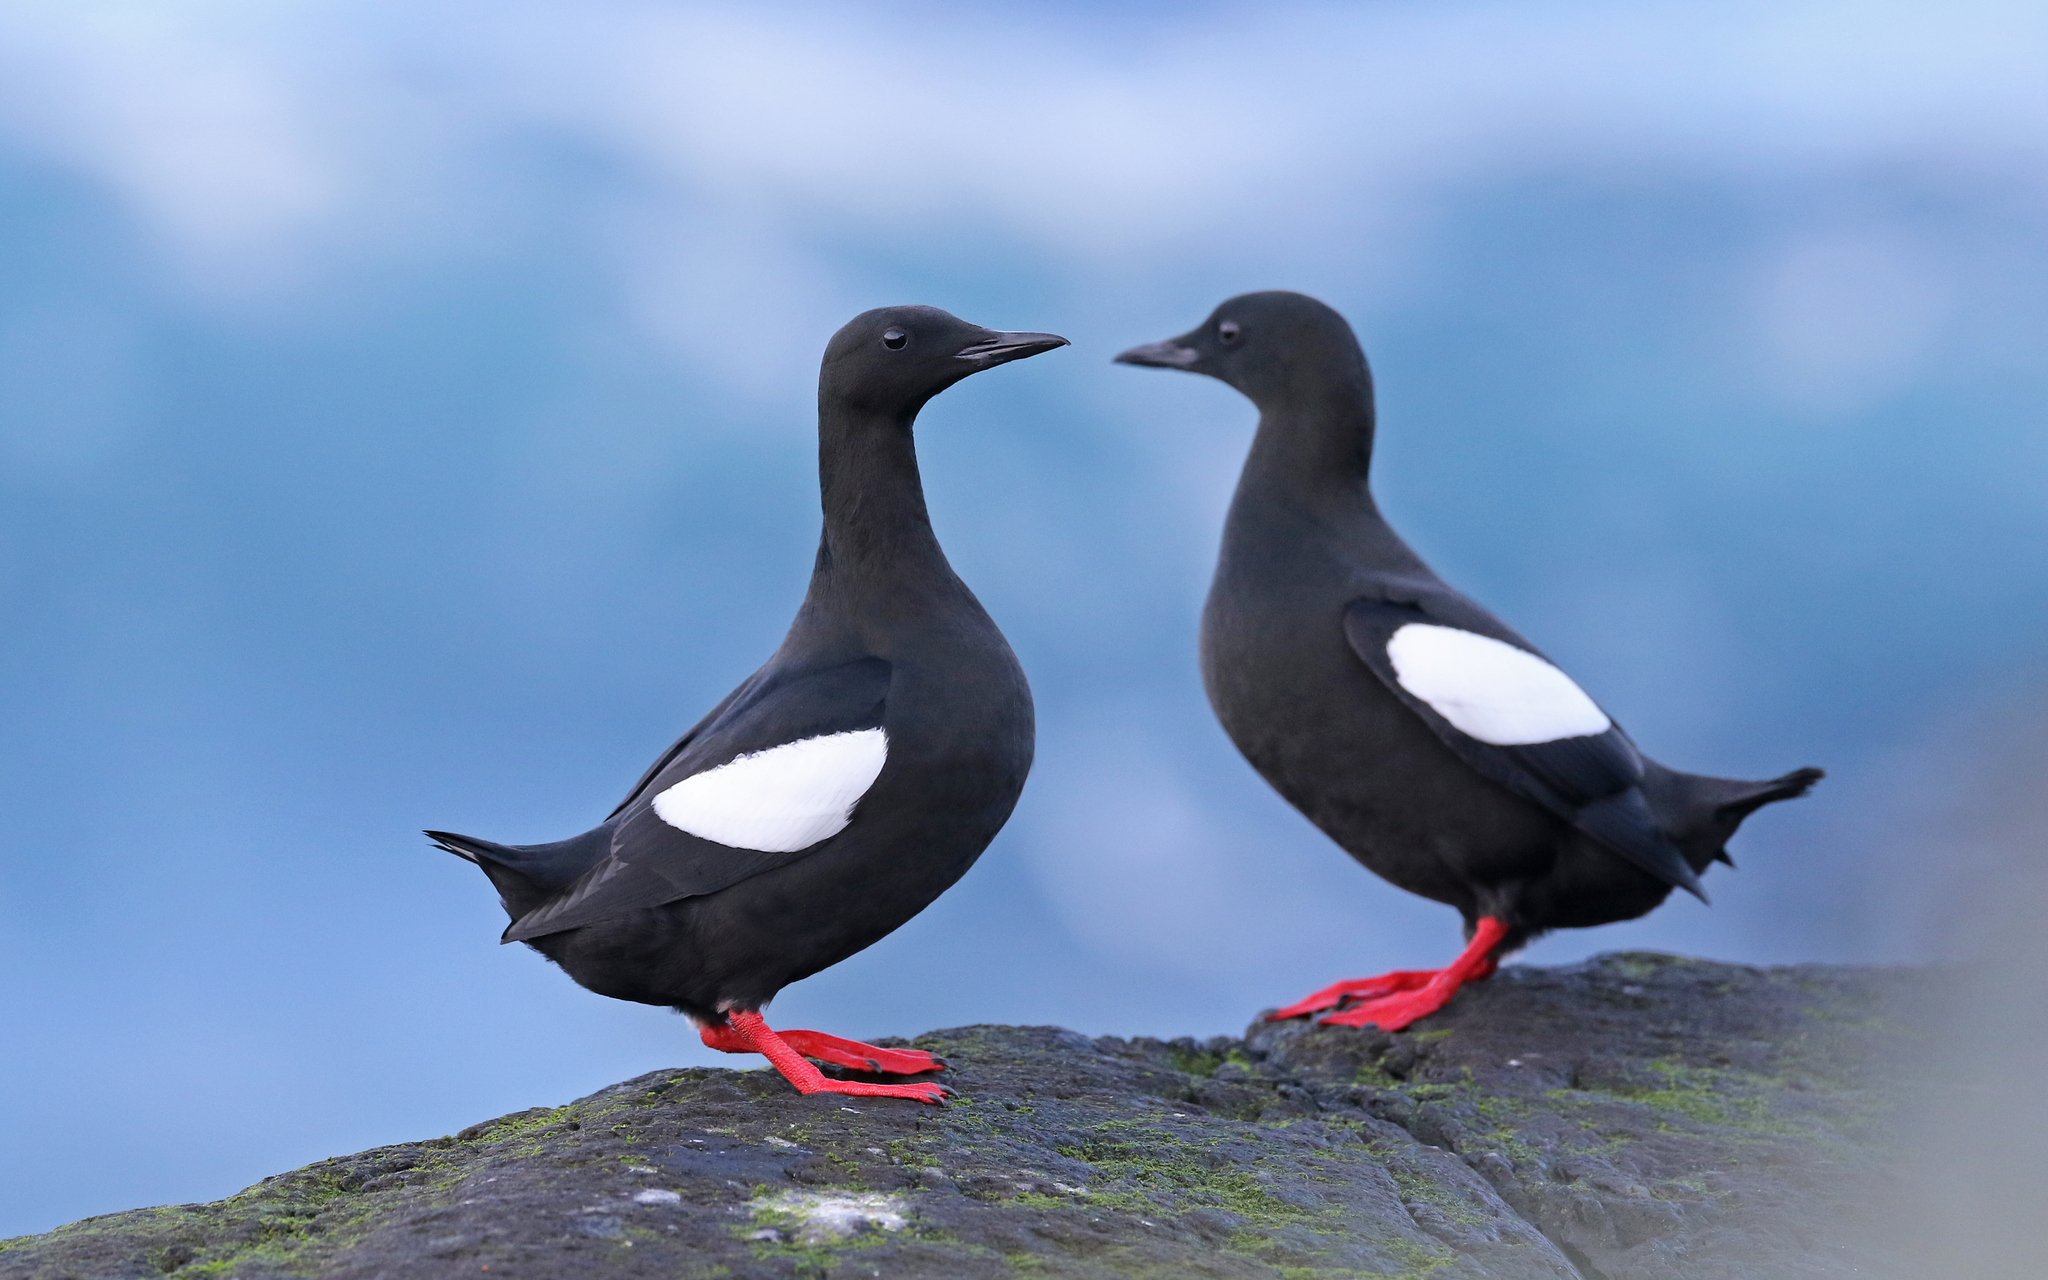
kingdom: Animalia
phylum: Chordata
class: Aves
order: Charadriiformes
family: Alcidae
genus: Cepphus
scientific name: Cepphus grylle
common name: Black guillemot
